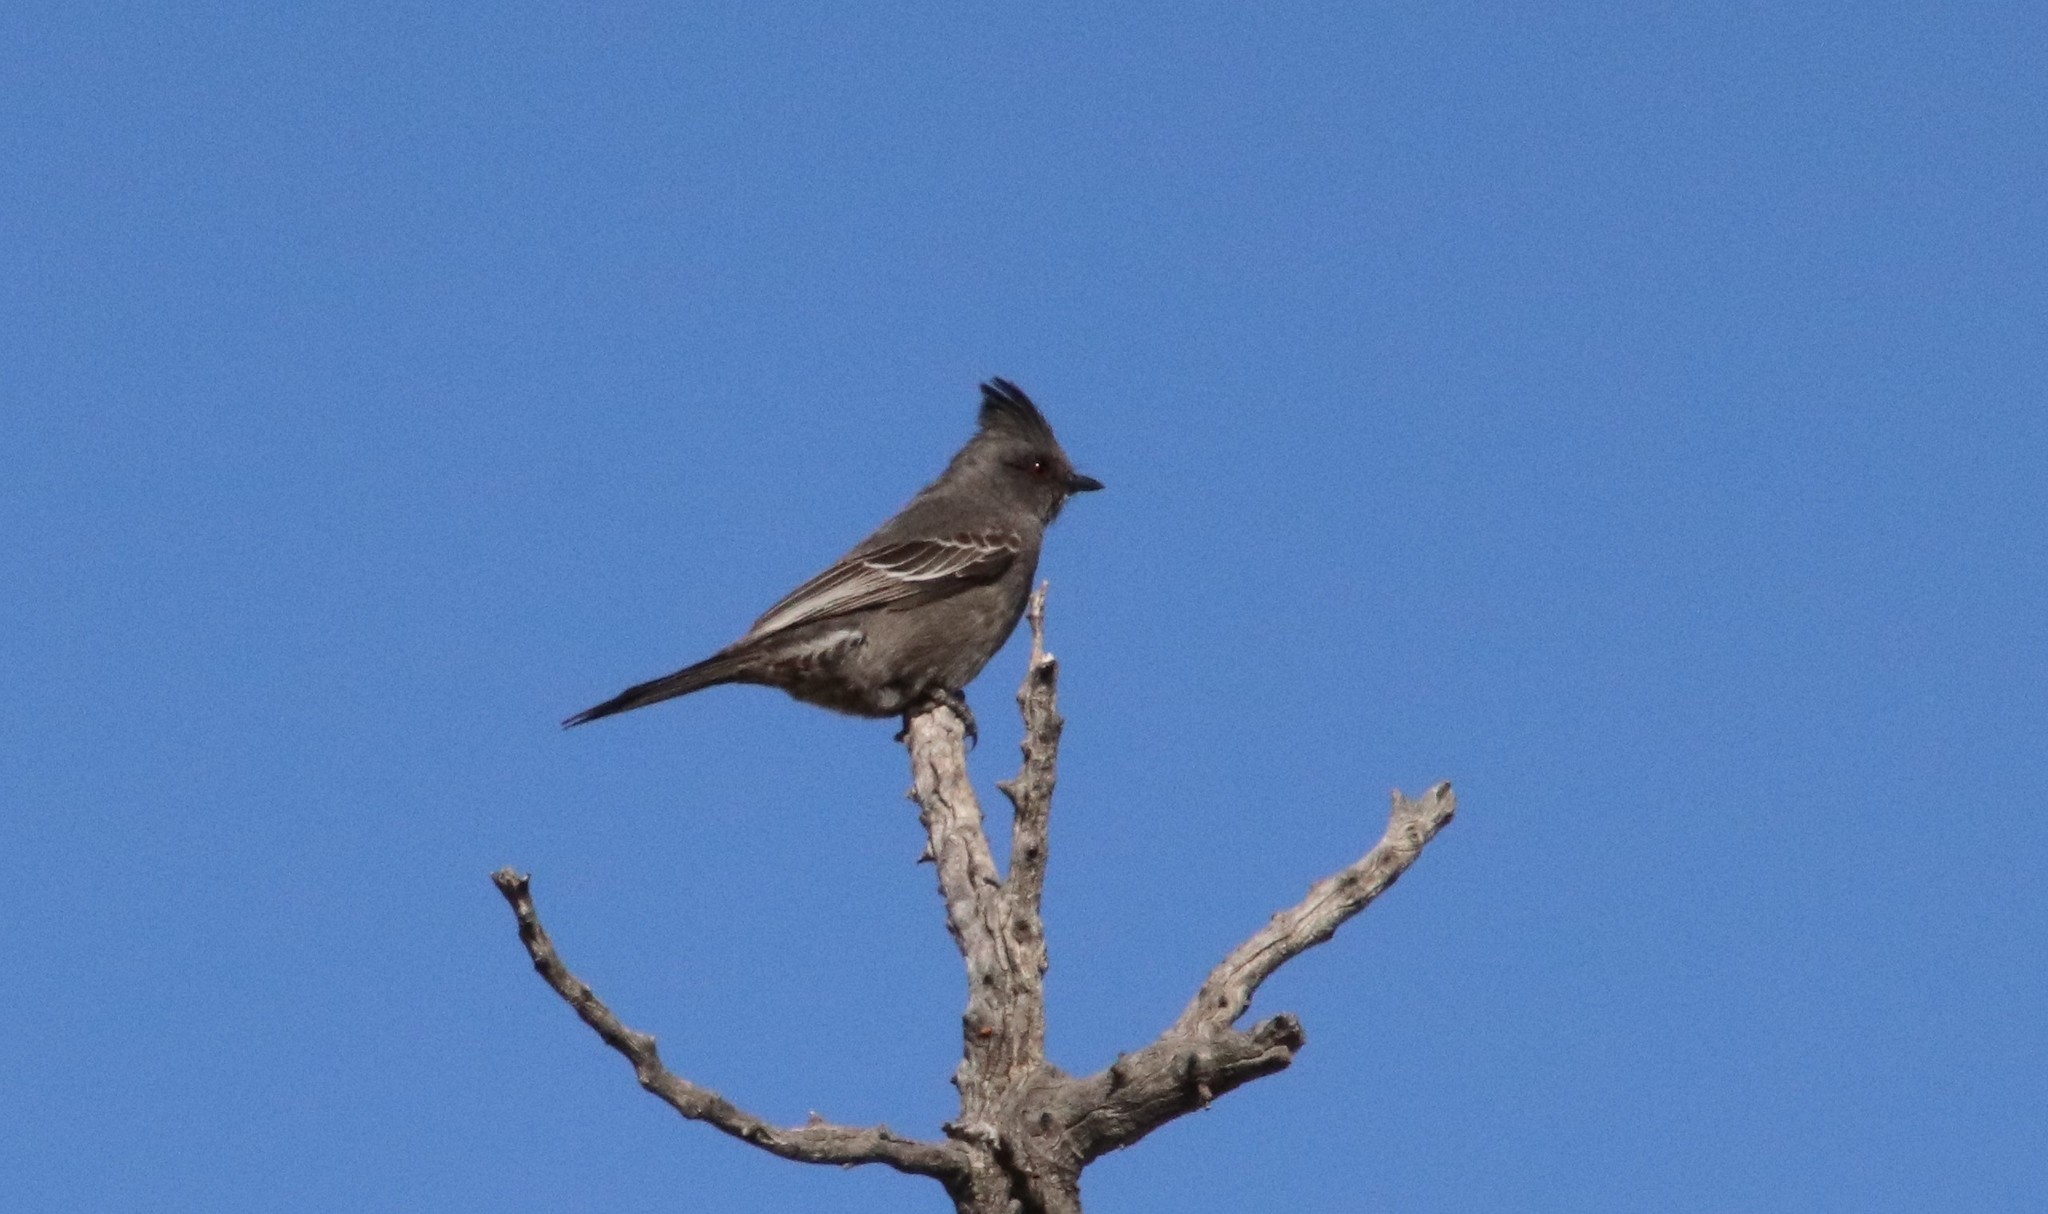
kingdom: Animalia
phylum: Chordata
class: Aves
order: Passeriformes
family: Ptilogonatidae
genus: Phainopepla
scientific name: Phainopepla nitens
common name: Phainopepla
